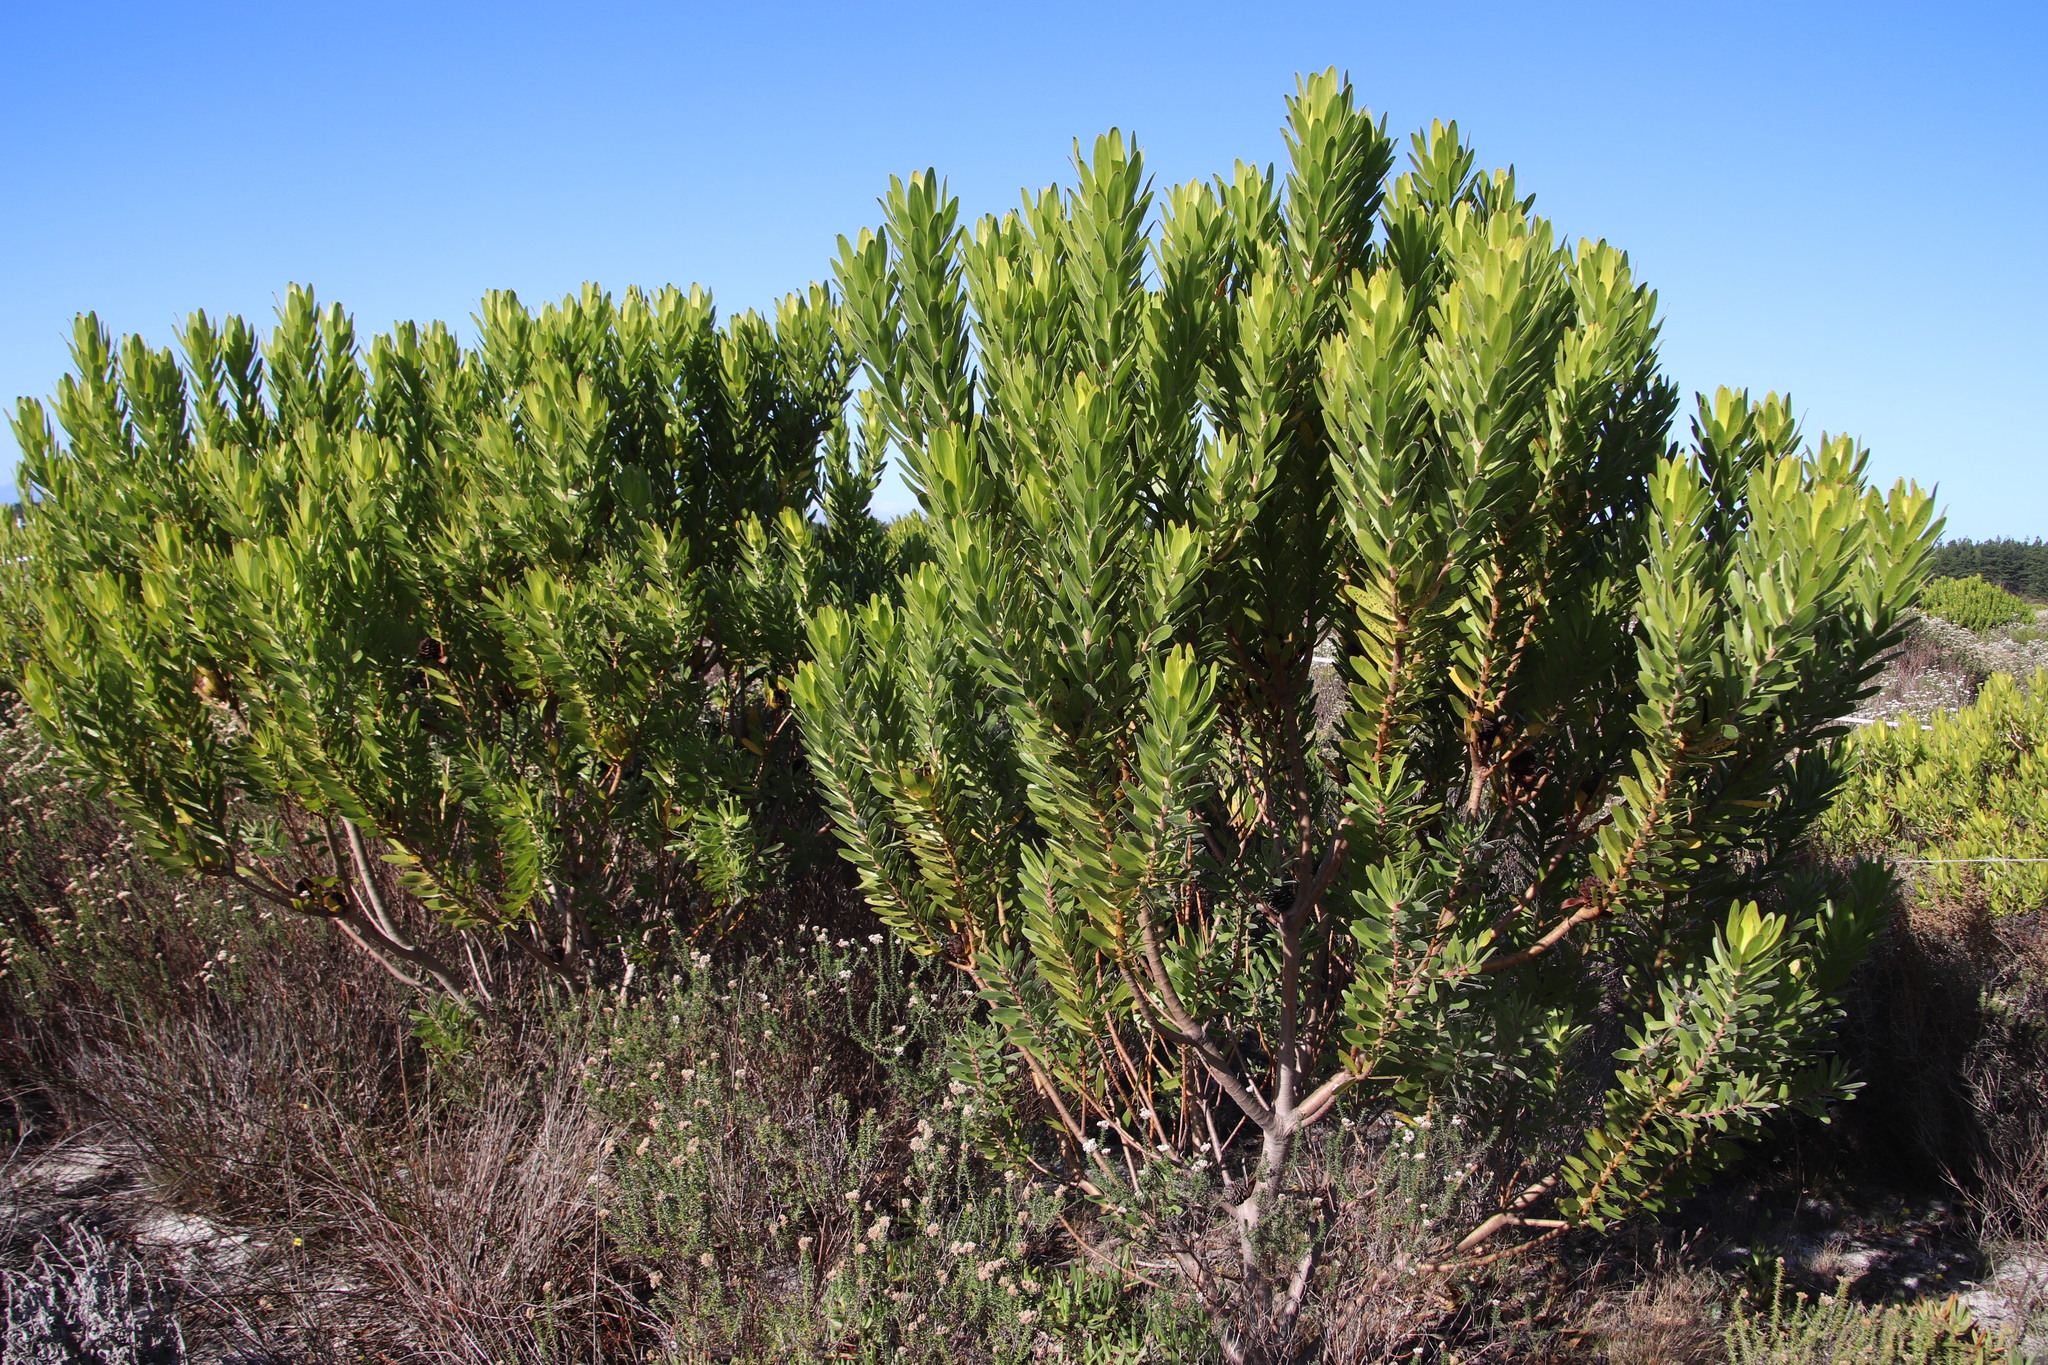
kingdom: Plantae
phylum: Tracheophyta
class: Magnoliopsida
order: Proteales
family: Proteaceae
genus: Leucadendron
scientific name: Leucadendron laureolum
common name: Golden sunshinebush
